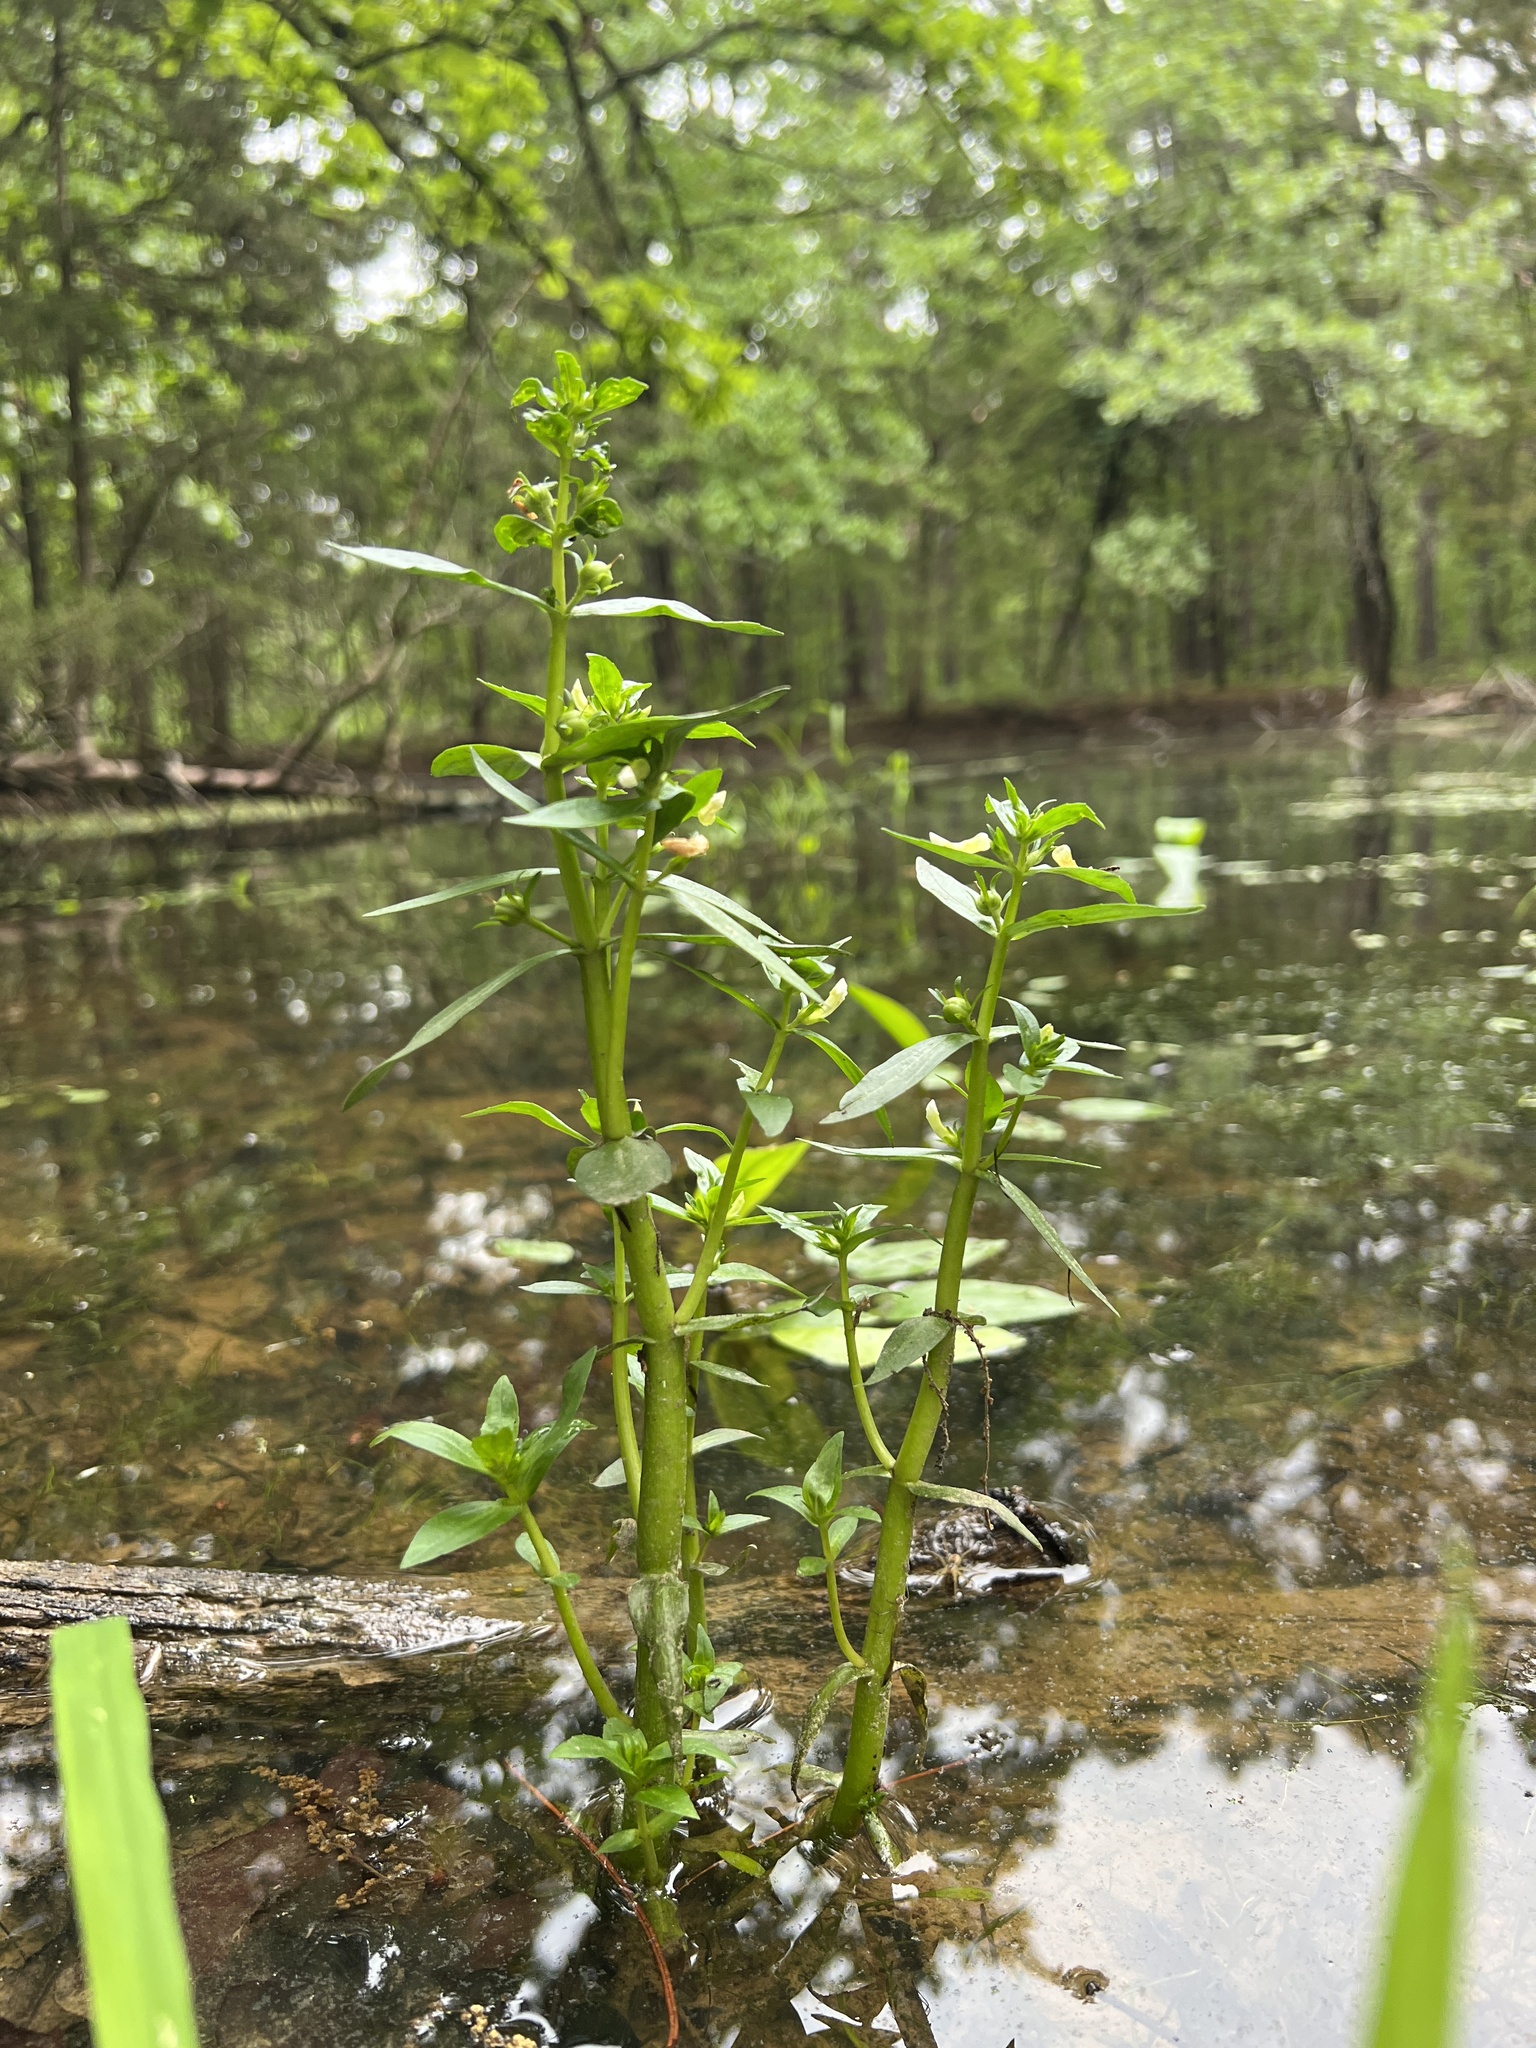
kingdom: Plantae
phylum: Tracheophyta
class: Magnoliopsida
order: Lamiales
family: Plantaginaceae
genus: Gratiola
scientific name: Gratiola virginiana
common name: Roundfruit hedgehyssop
